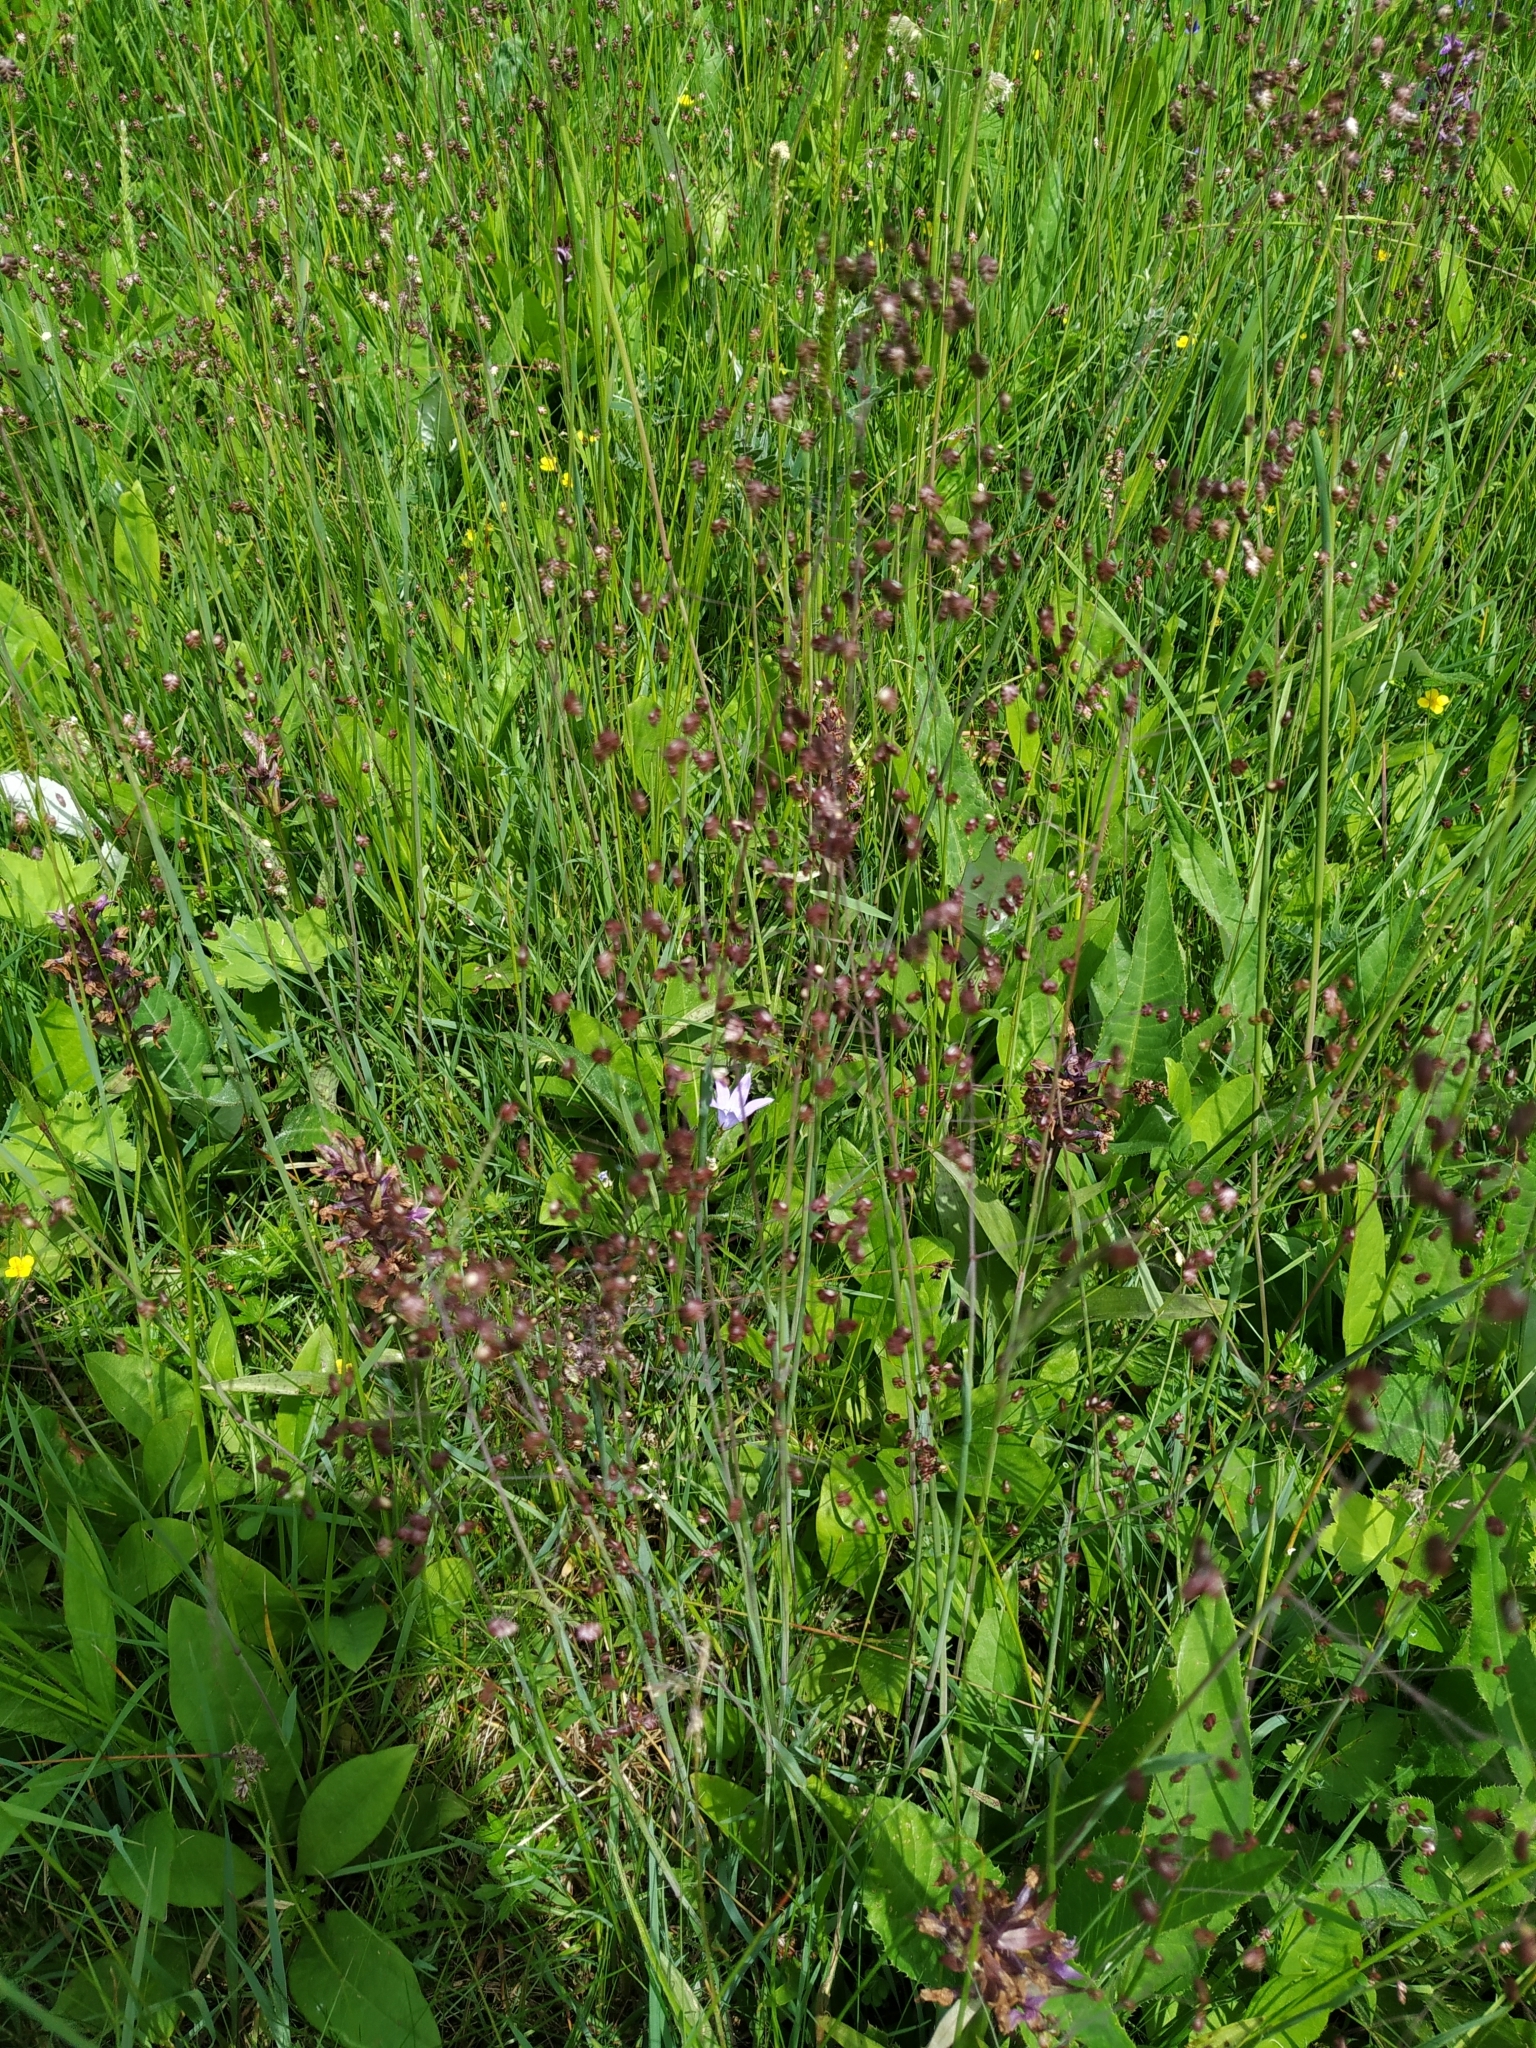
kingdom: Plantae
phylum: Tracheophyta
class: Liliopsida
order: Poales
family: Poaceae
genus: Briza
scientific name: Briza media
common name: Quaking grass
